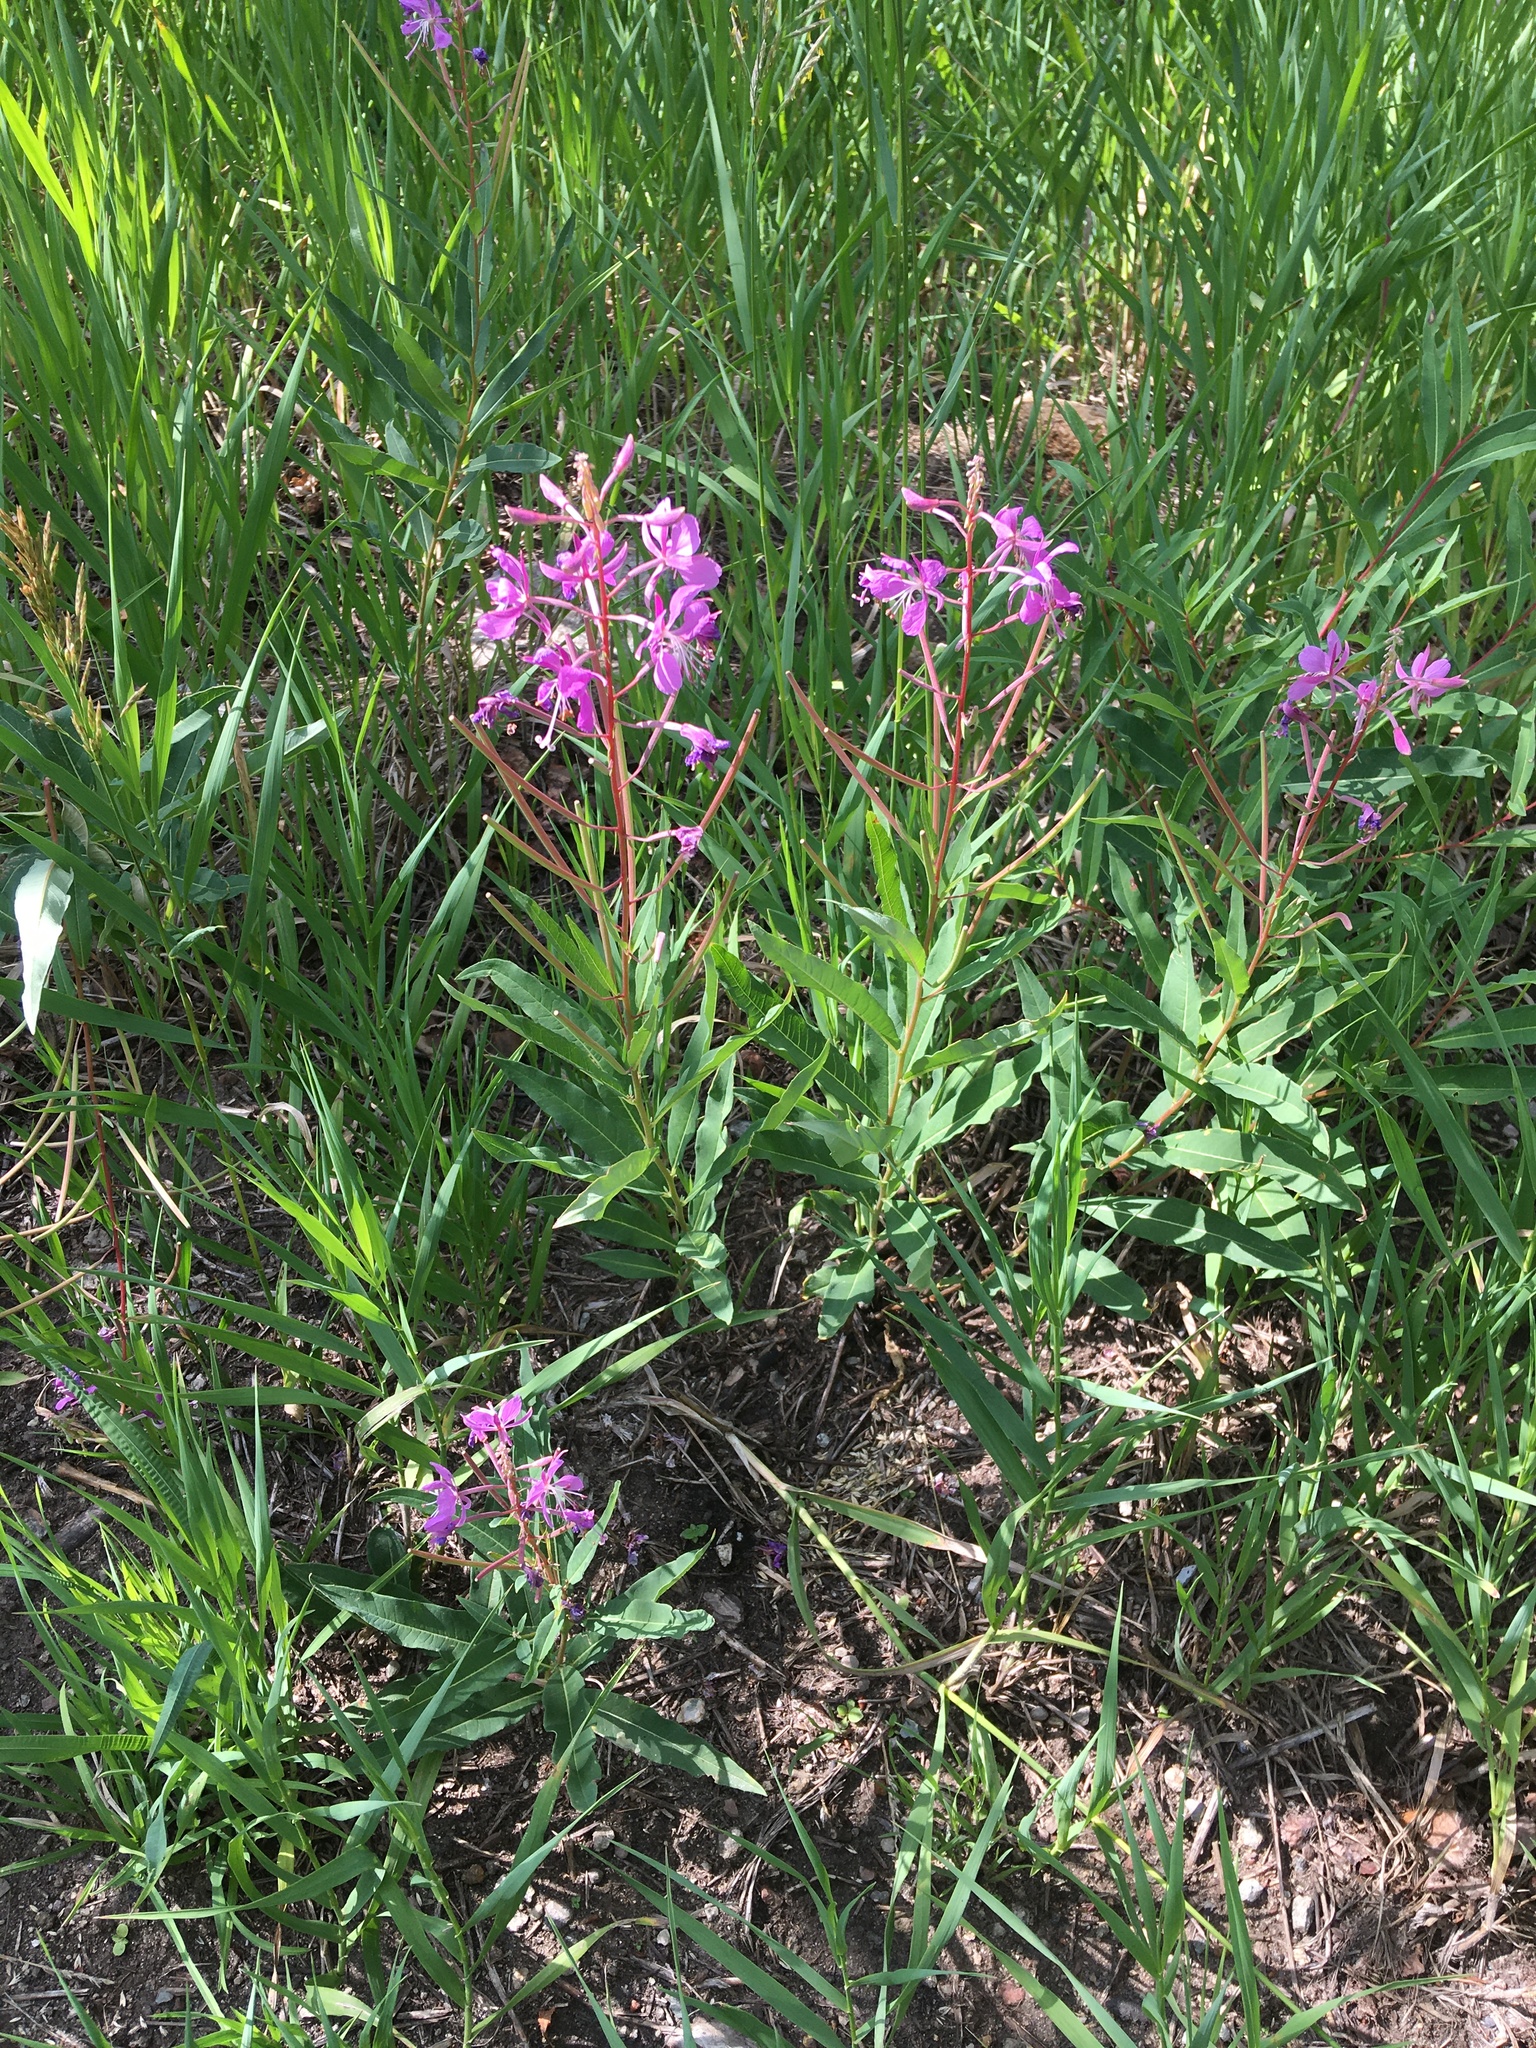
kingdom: Plantae
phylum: Tracheophyta
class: Magnoliopsida
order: Myrtales
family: Onagraceae
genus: Chamaenerion
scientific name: Chamaenerion angustifolium
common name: Fireweed
